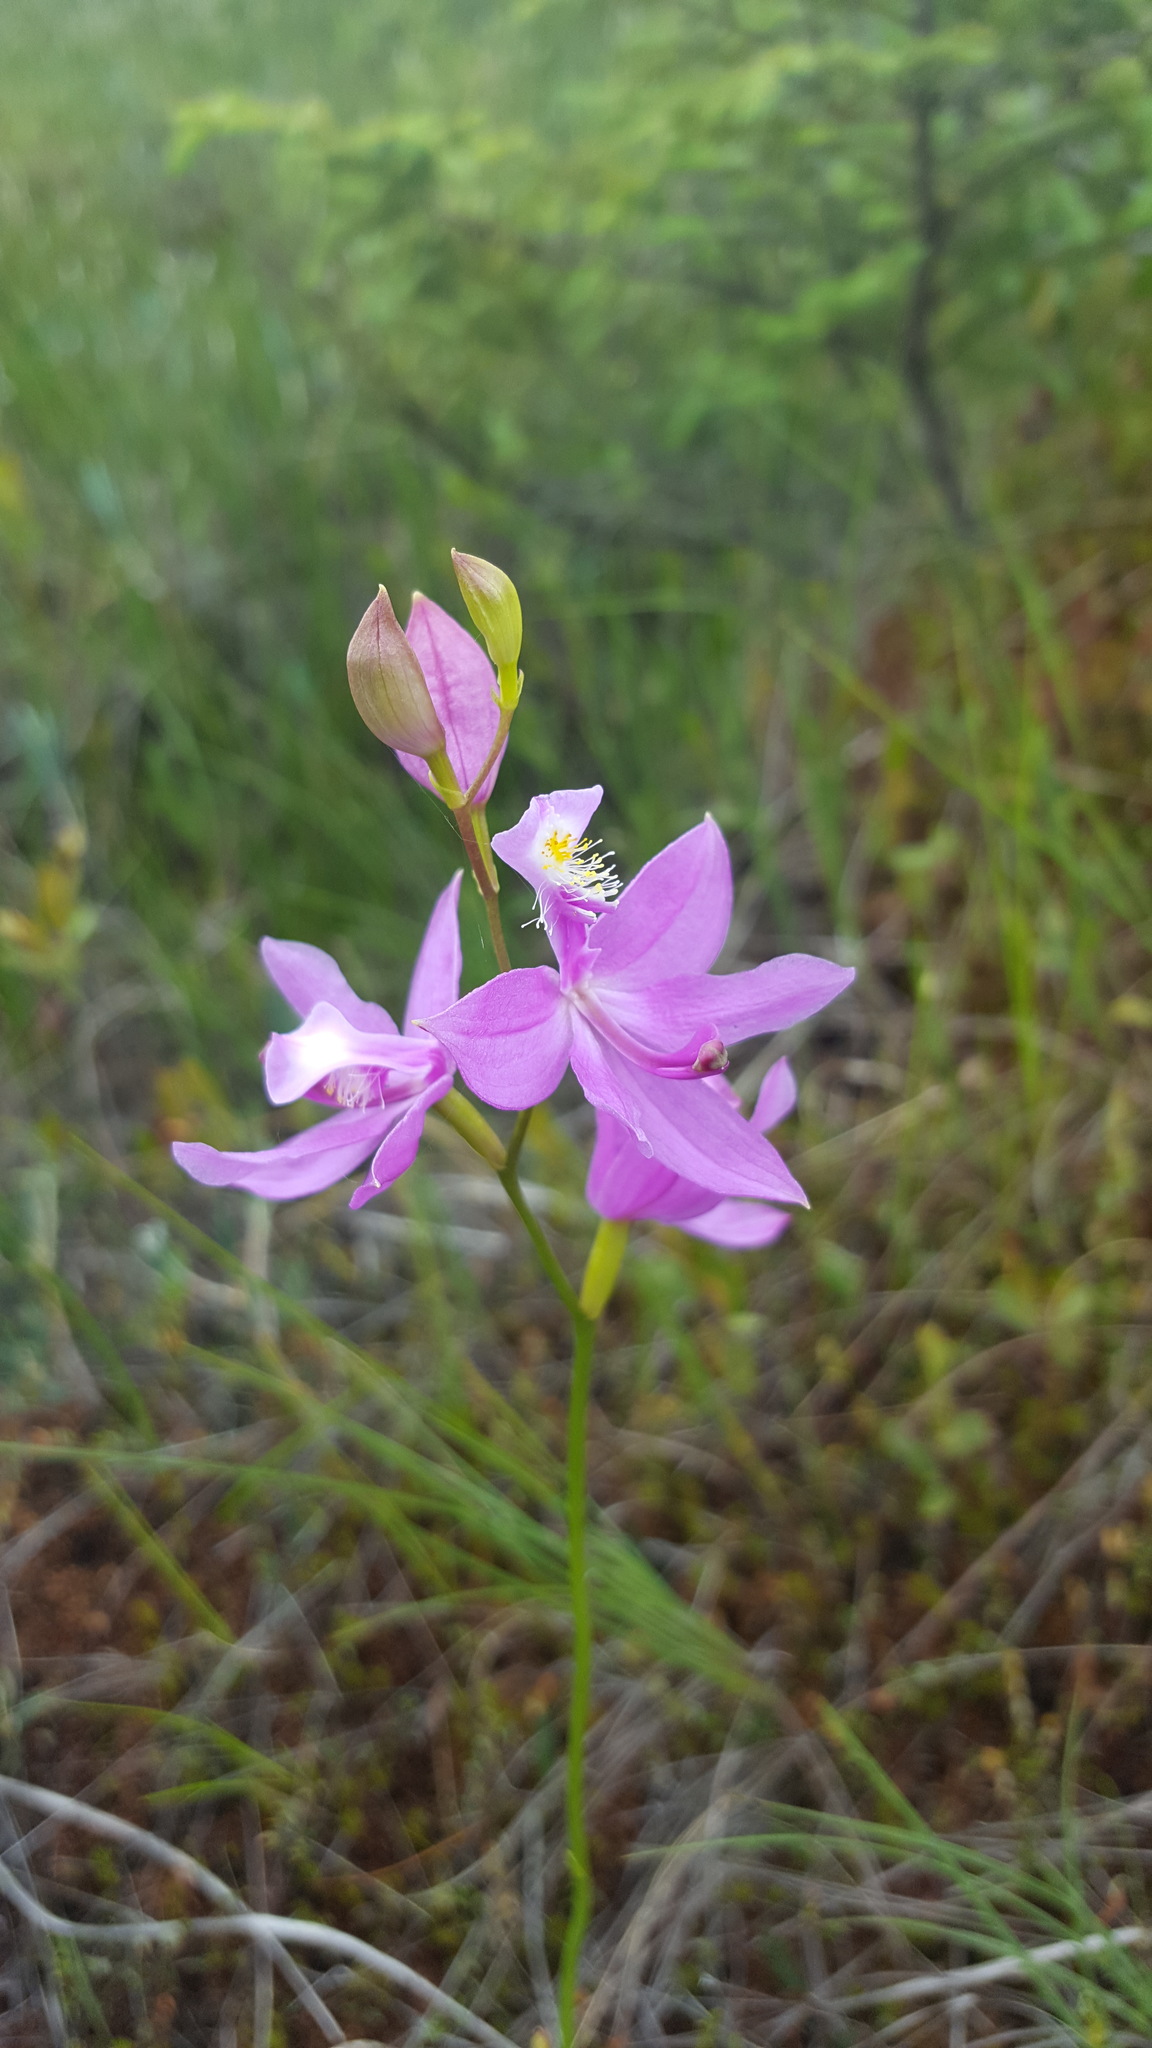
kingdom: Plantae
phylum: Tracheophyta
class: Liliopsida
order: Asparagales
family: Orchidaceae
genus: Calopogon
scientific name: Calopogon tuberosus
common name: Grass-pink
